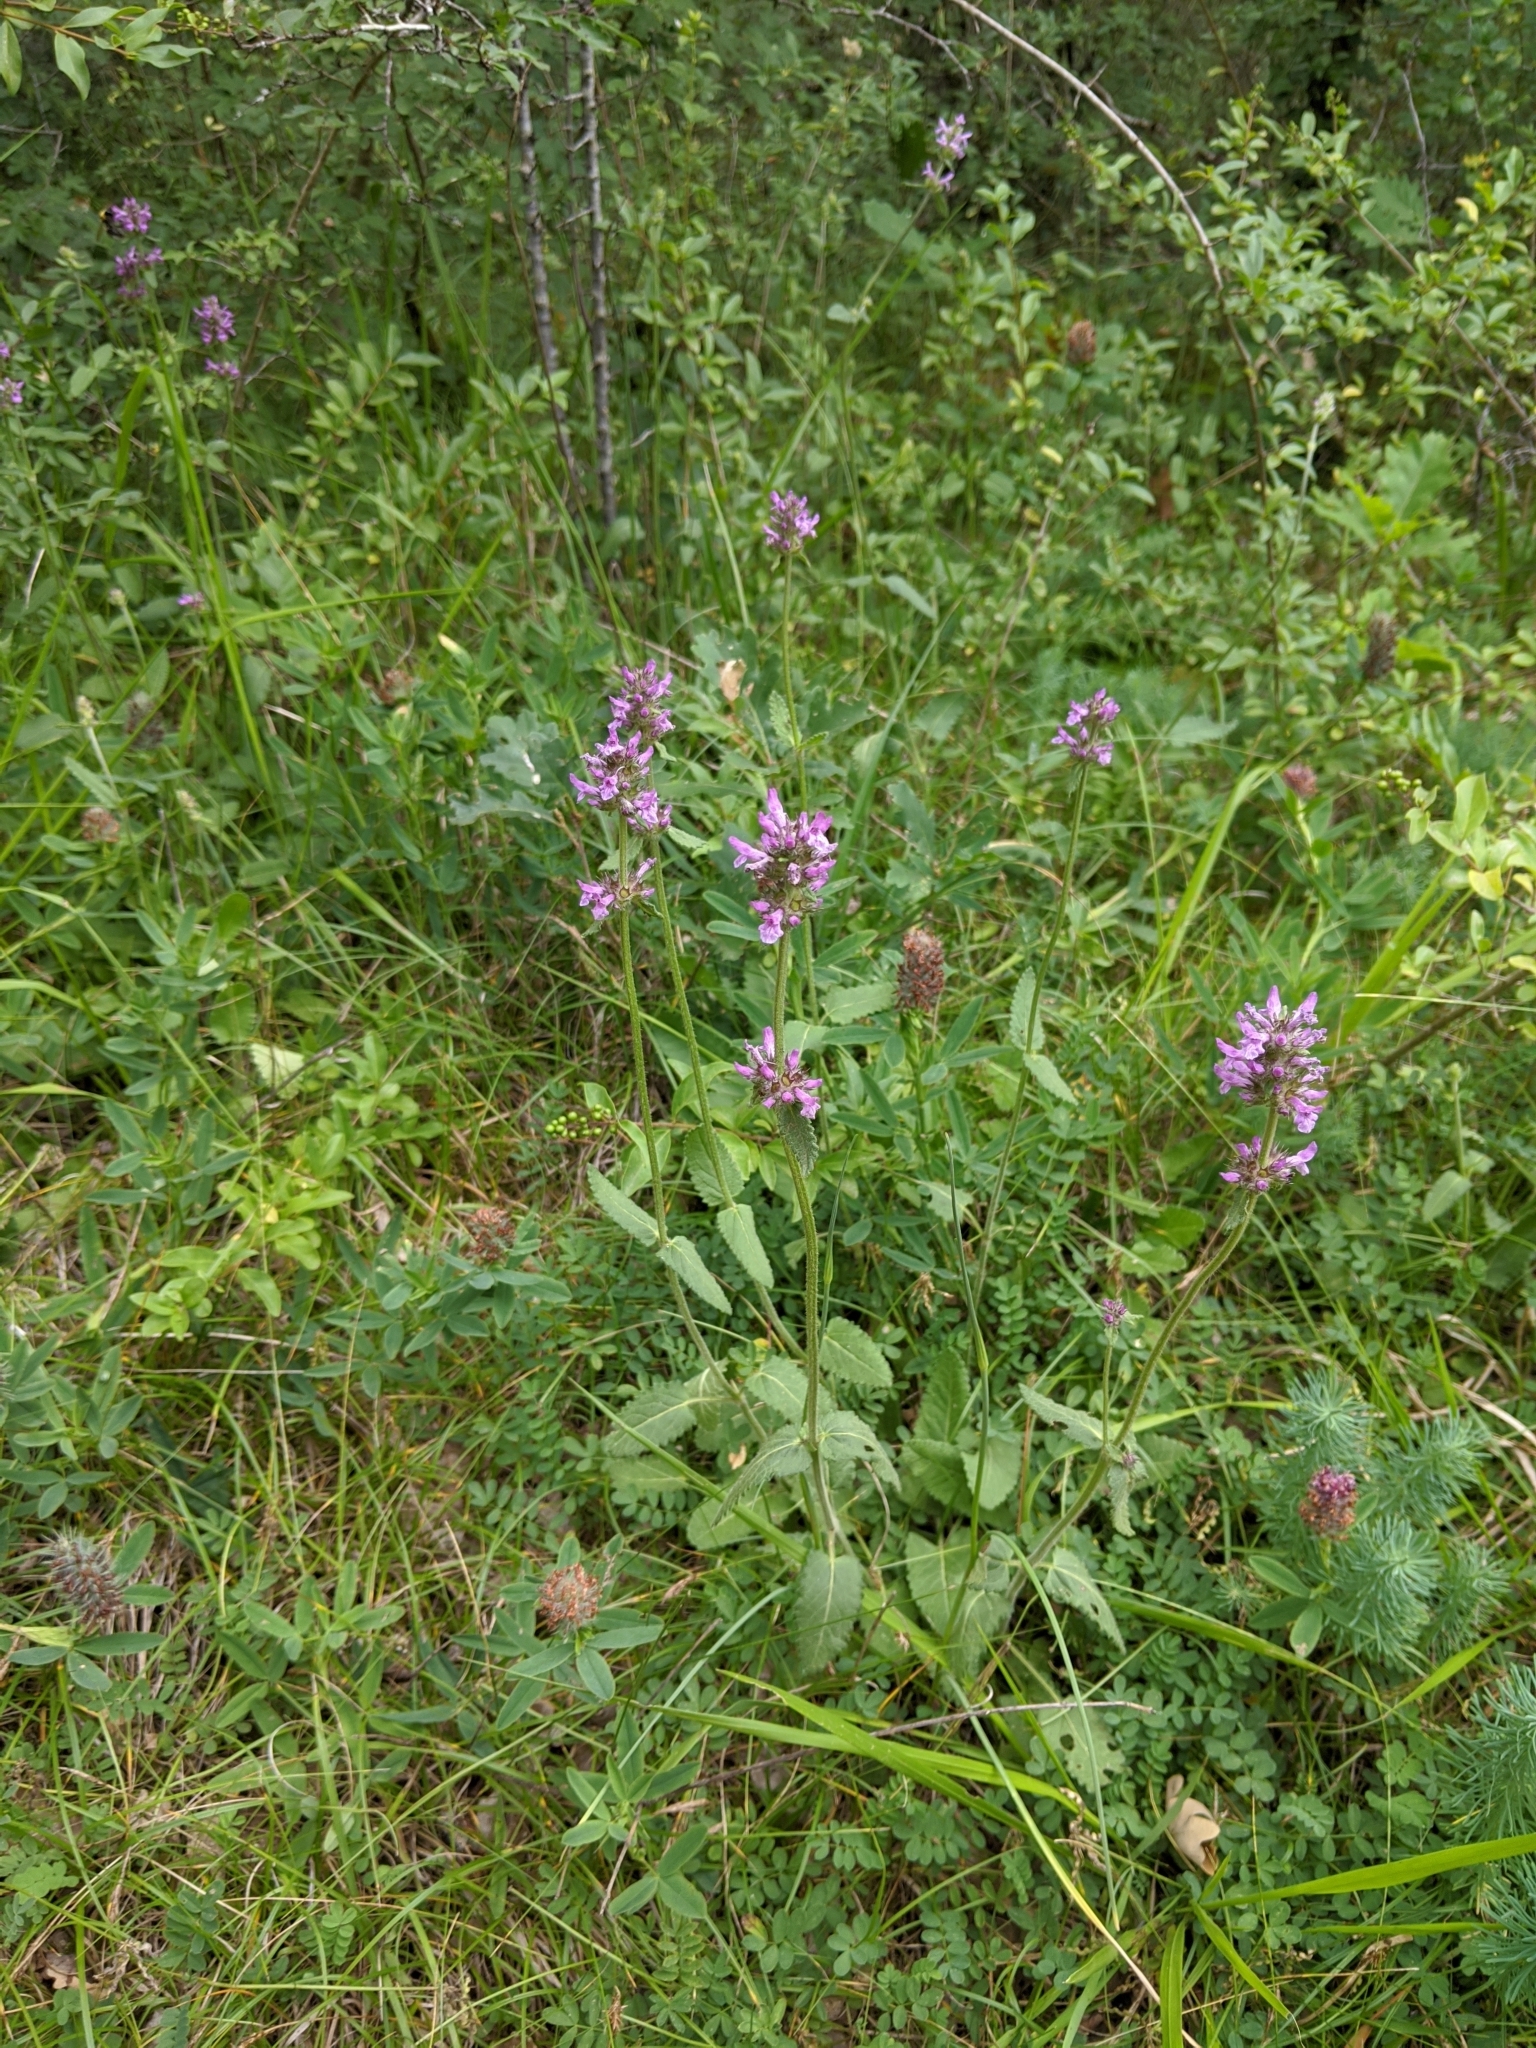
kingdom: Plantae
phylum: Tracheophyta
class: Magnoliopsida
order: Lamiales
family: Lamiaceae
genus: Betonica
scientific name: Betonica officinalis
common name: Bishop's-wort
